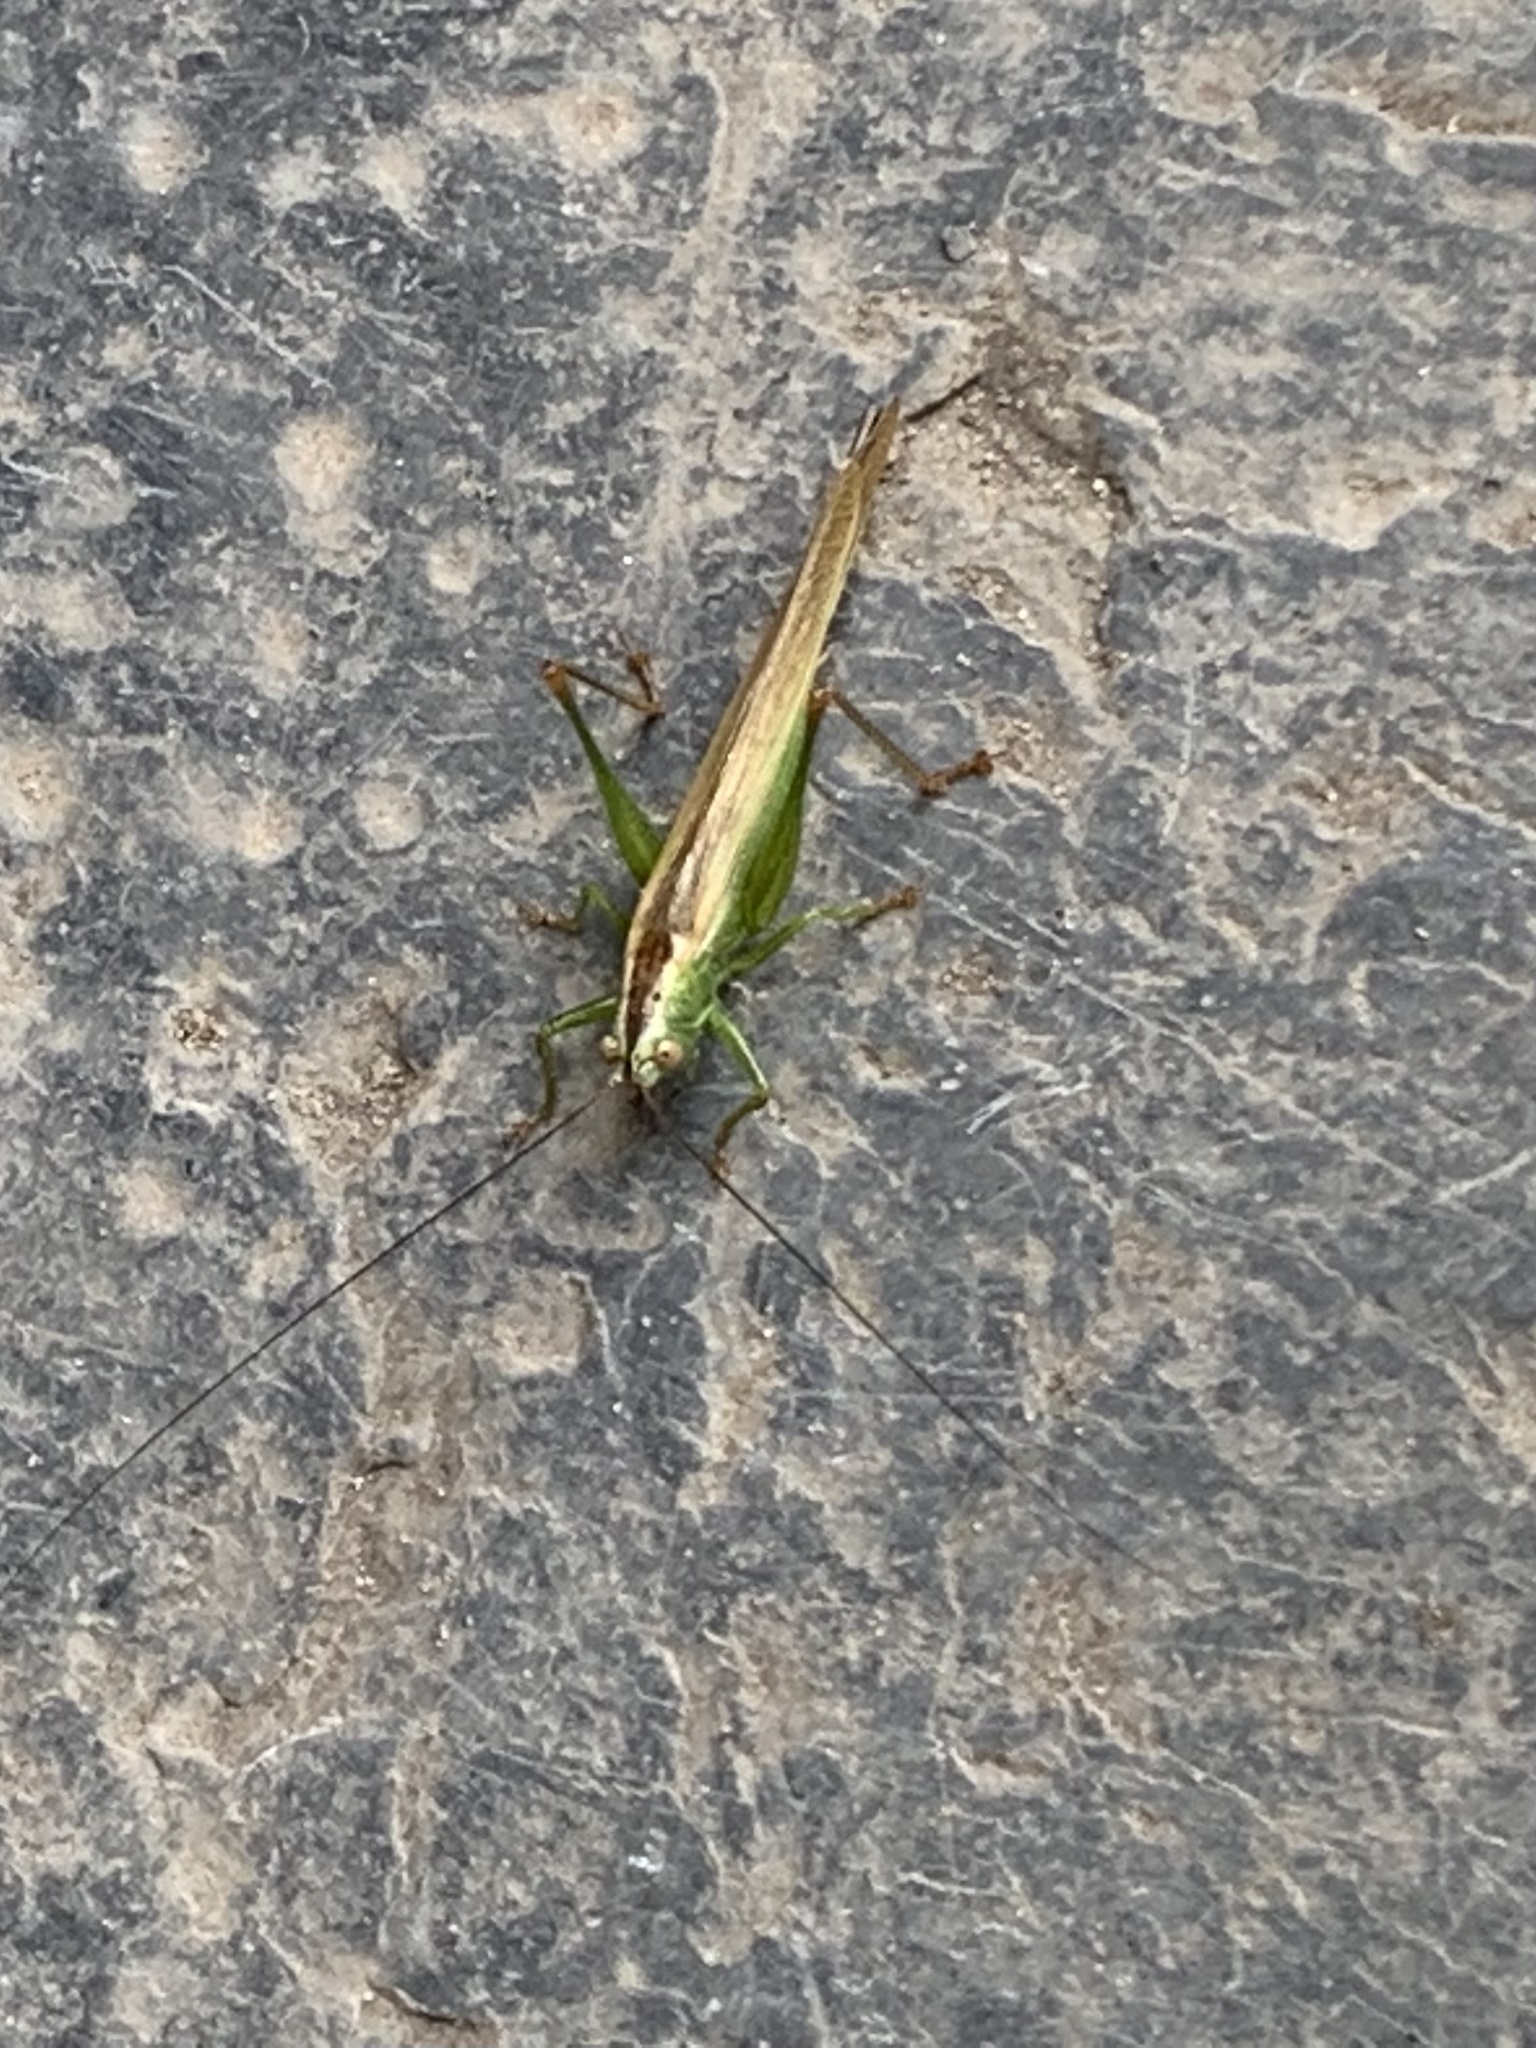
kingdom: Animalia
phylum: Arthropoda
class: Insecta
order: Orthoptera
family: Tettigoniidae
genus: Conocephalus
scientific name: Conocephalus fuscus
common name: Long-winged conehead
